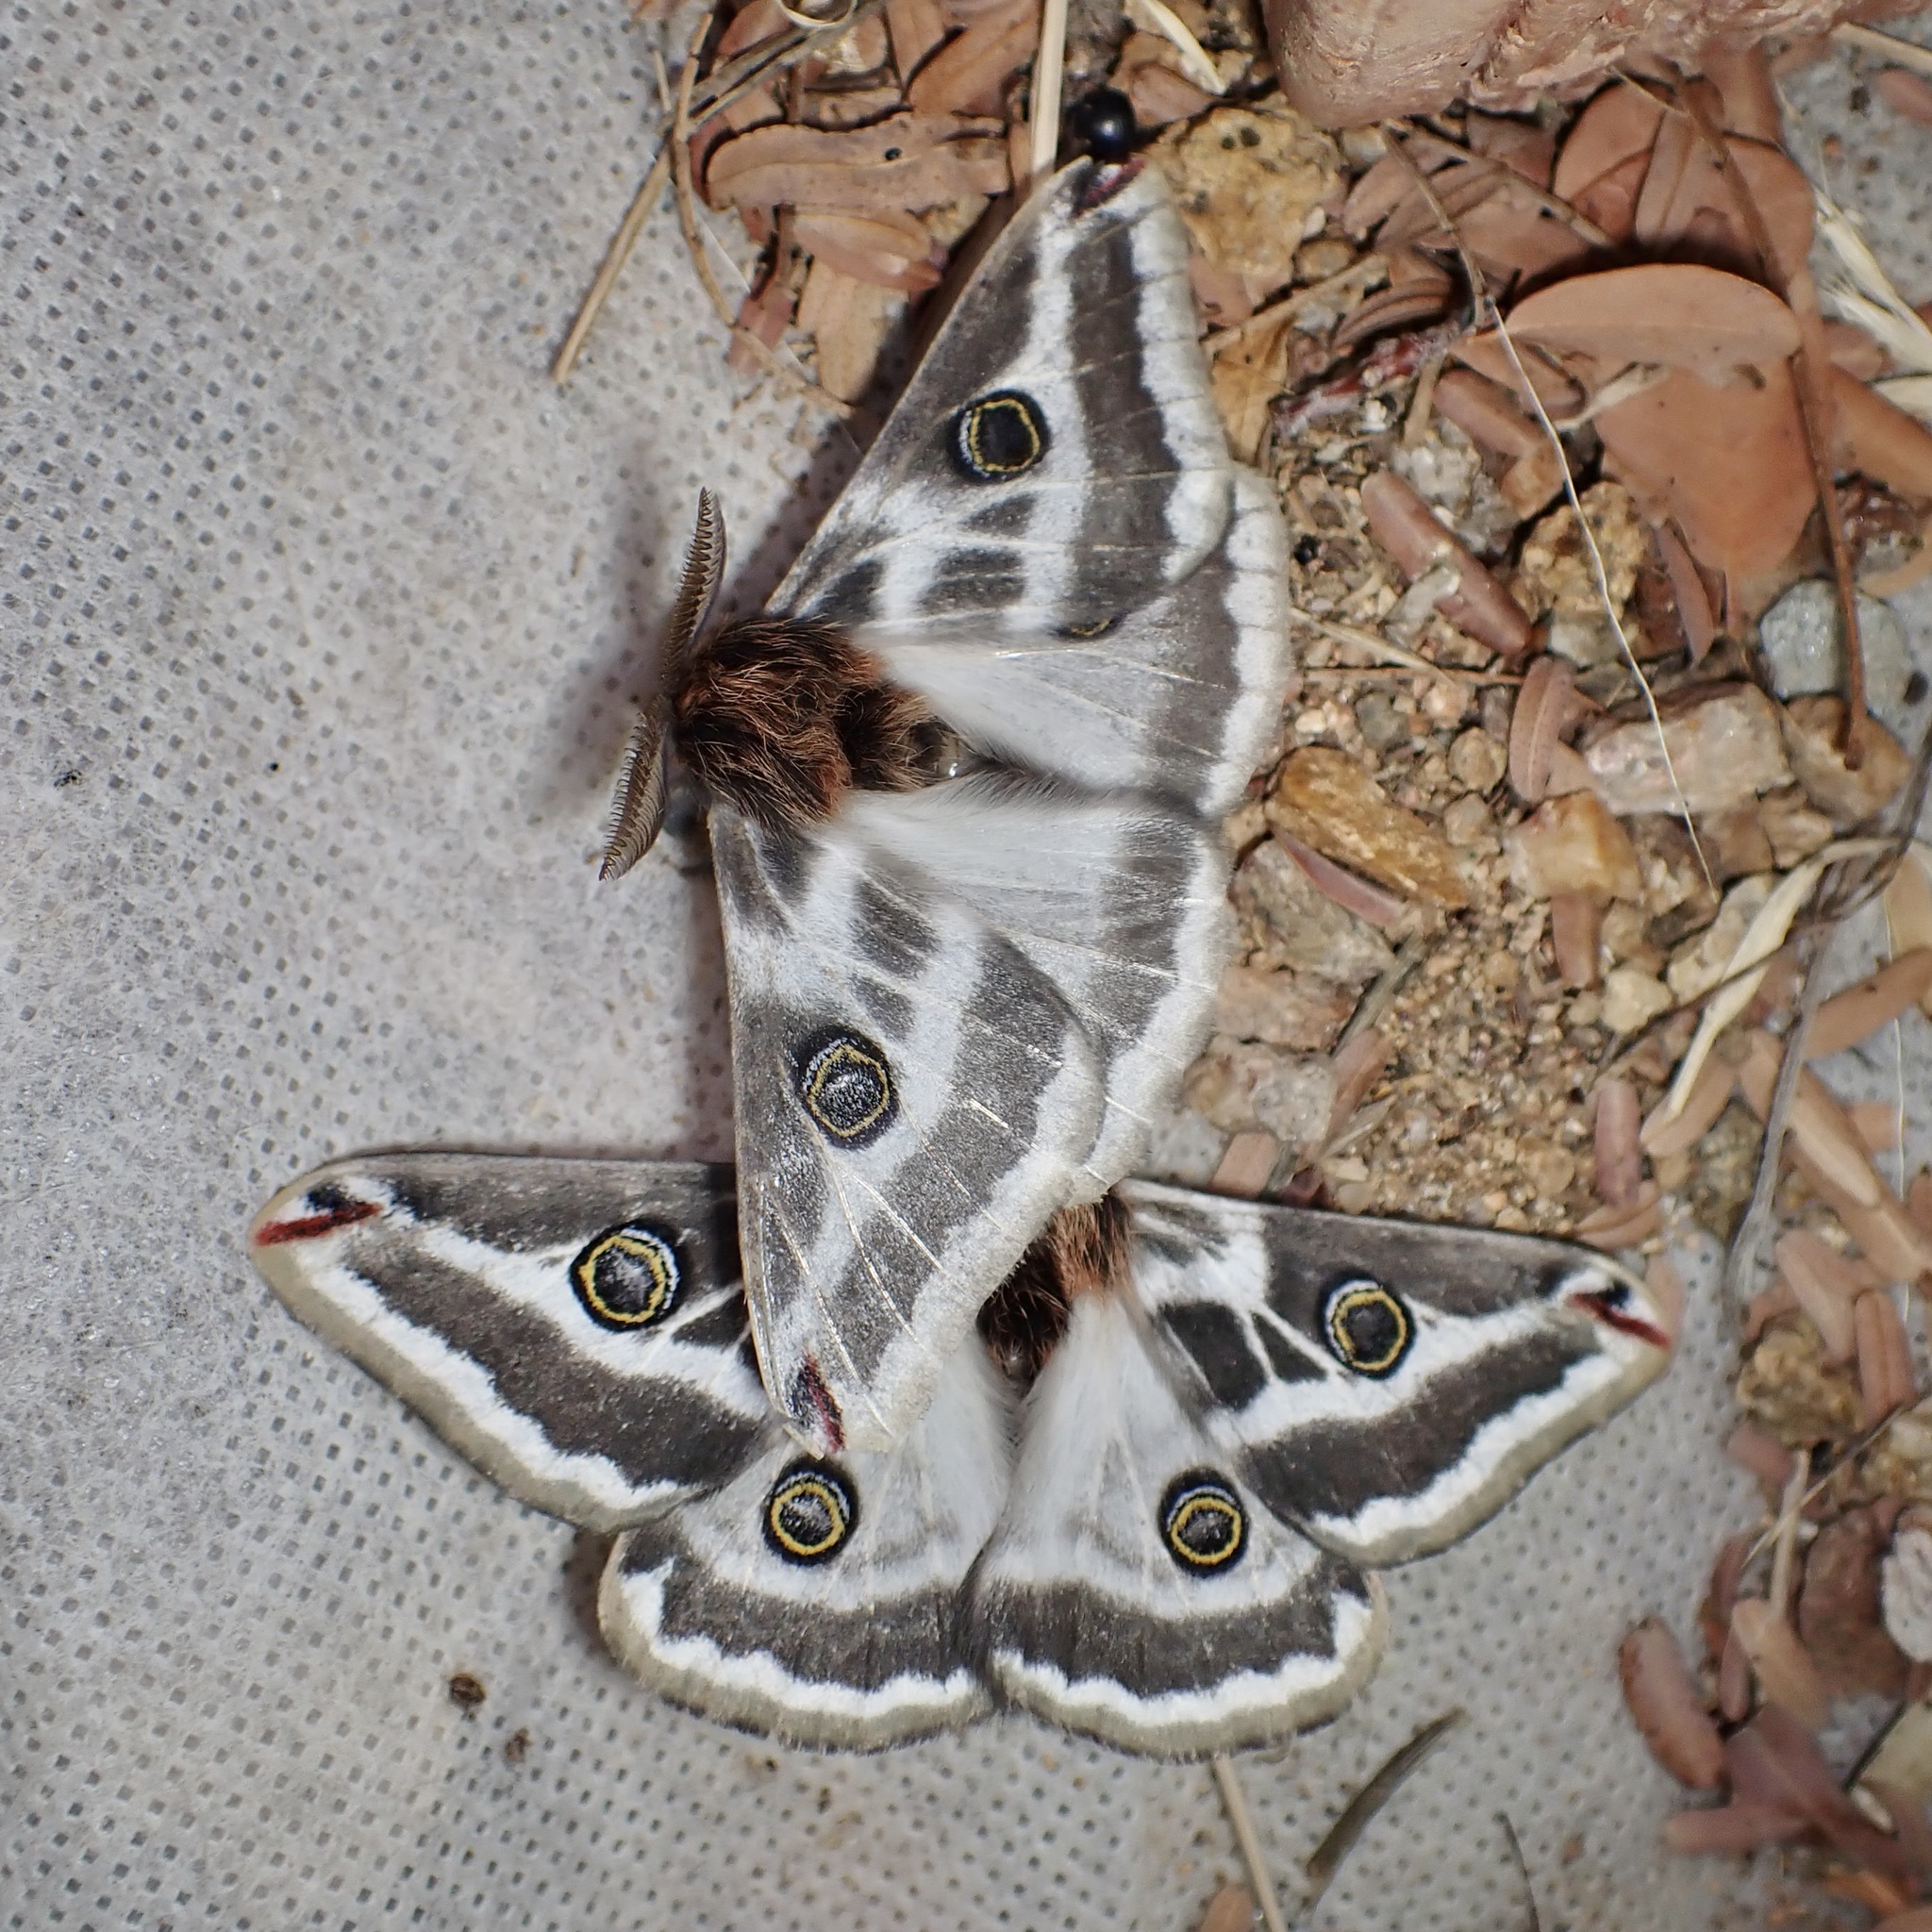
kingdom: Animalia
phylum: Arthropoda
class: Insecta
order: Lepidoptera
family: Saturniidae
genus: Saturnia
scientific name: Saturnia anona
